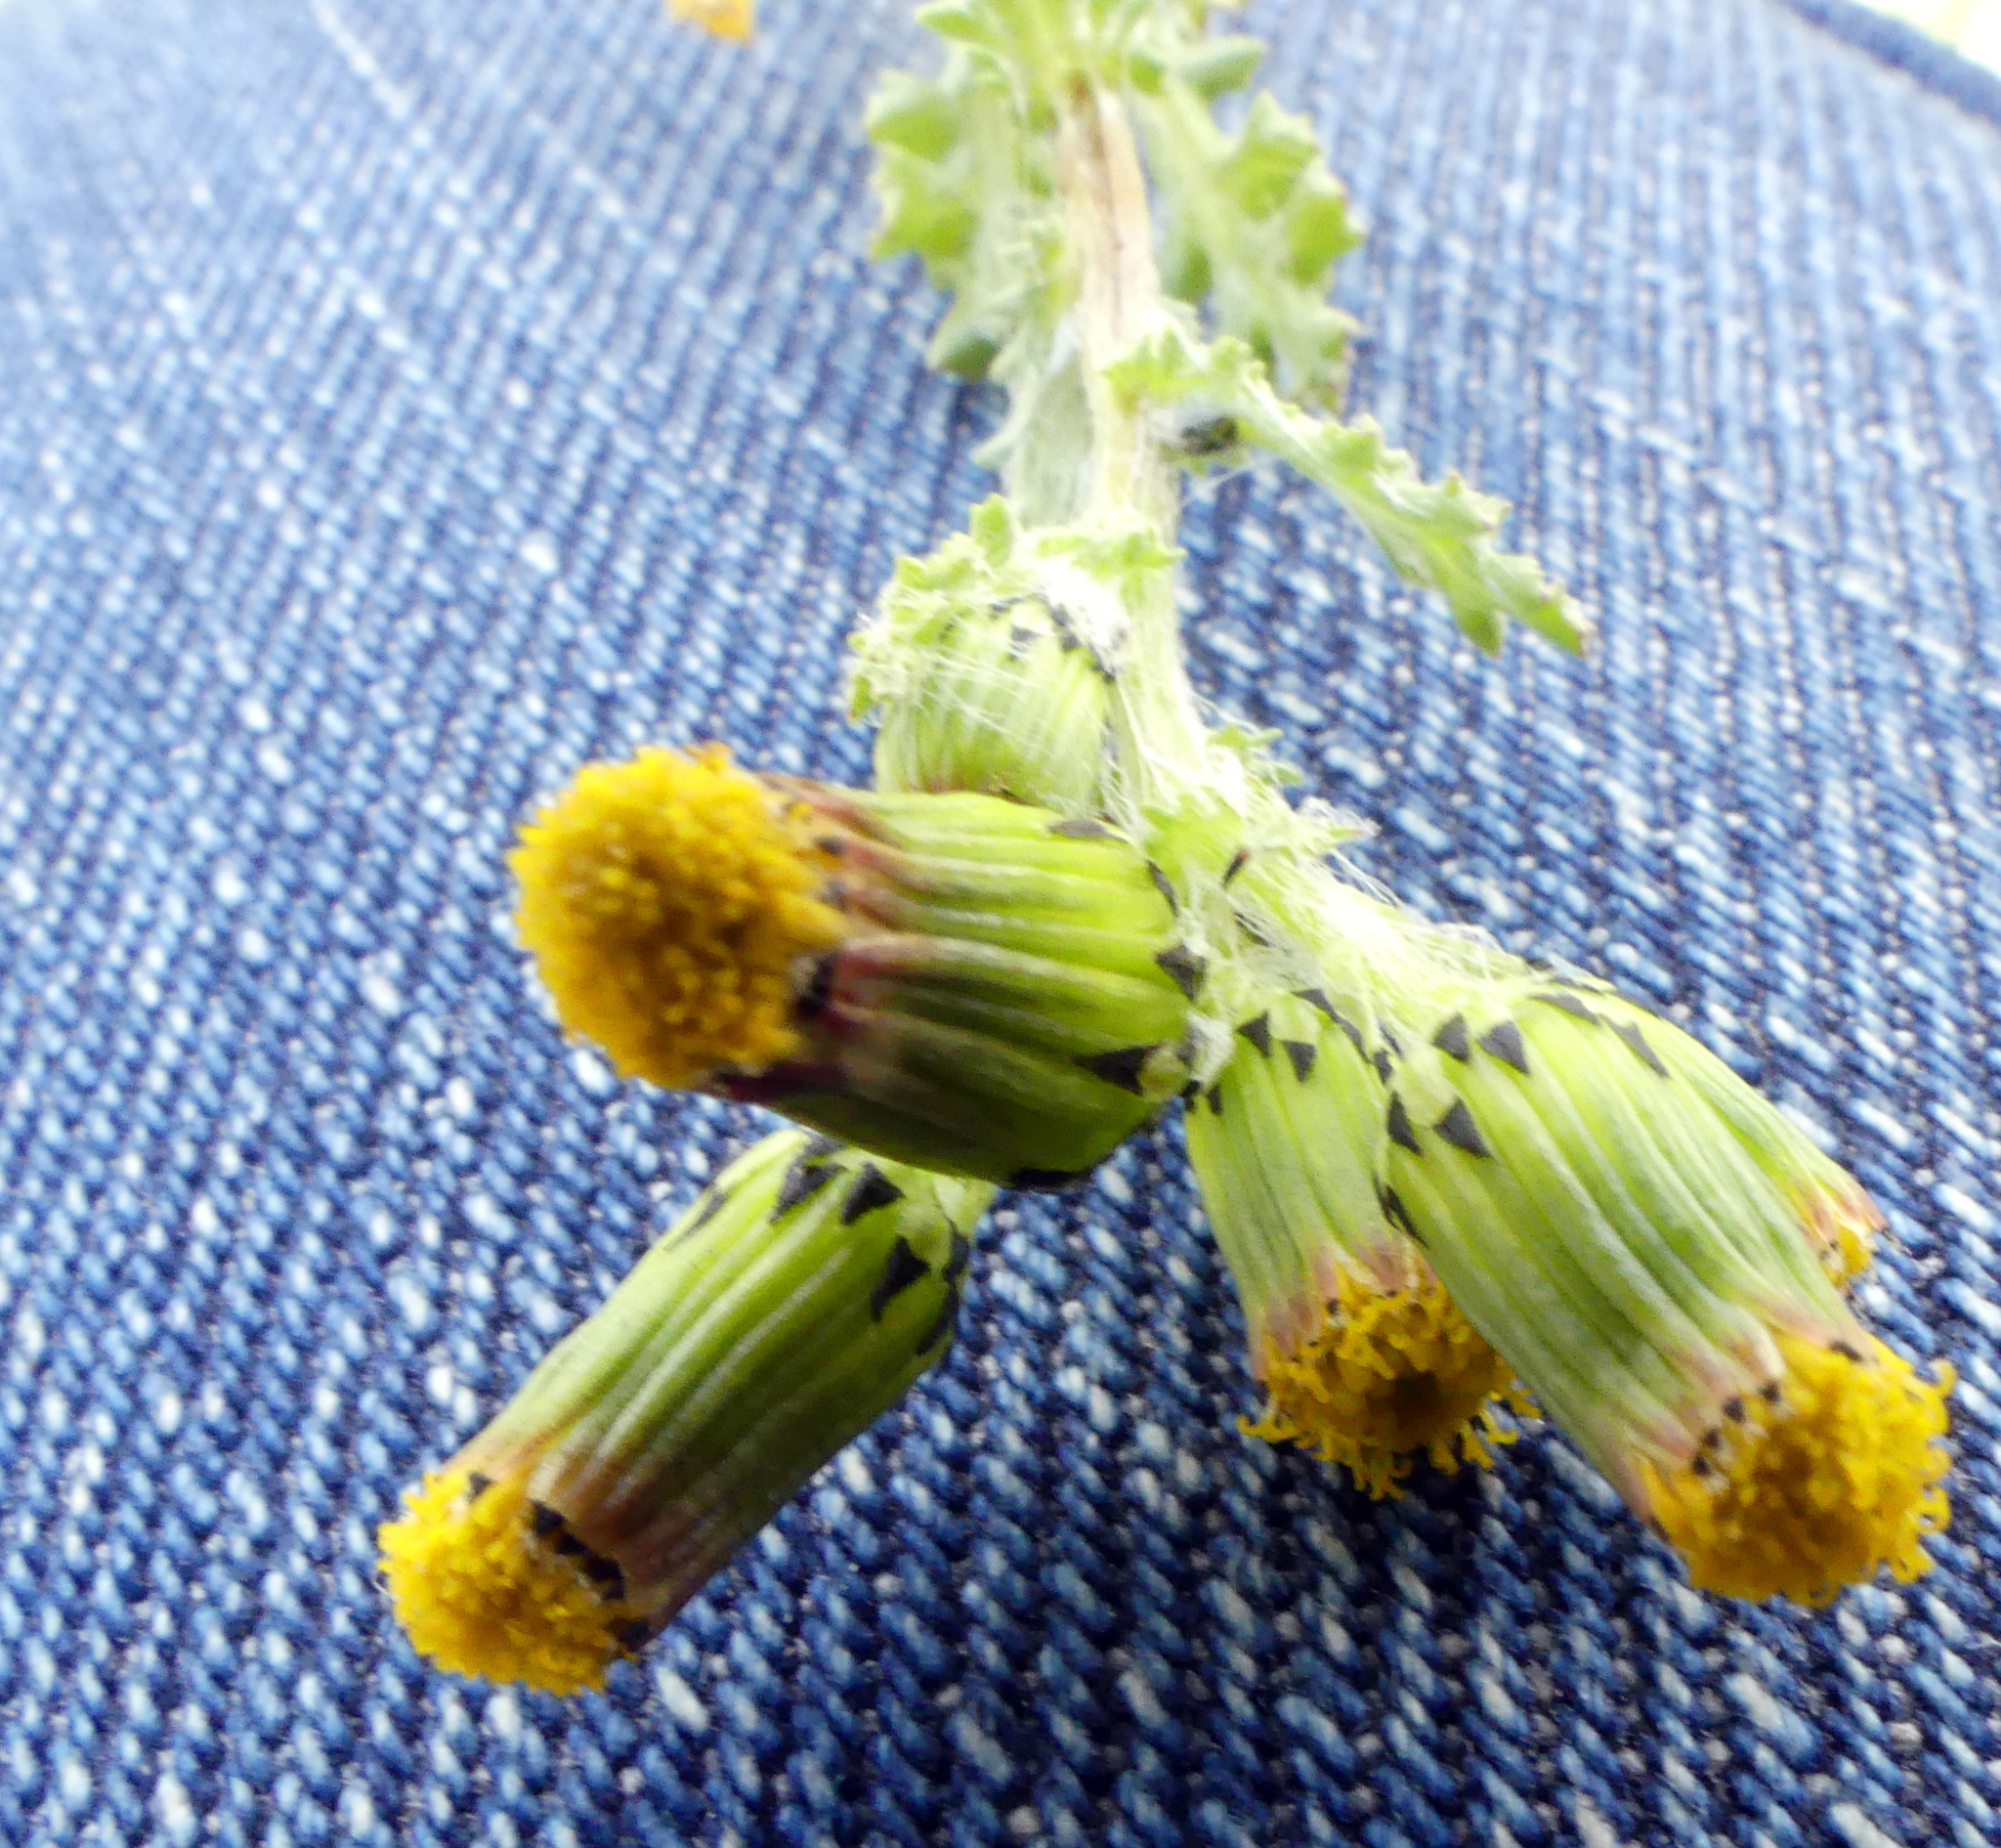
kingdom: Plantae
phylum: Tracheophyta
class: Magnoliopsida
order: Asterales
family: Asteraceae
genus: Senecio
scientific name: Senecio vulgaris
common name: Old-man-in-the-spring
